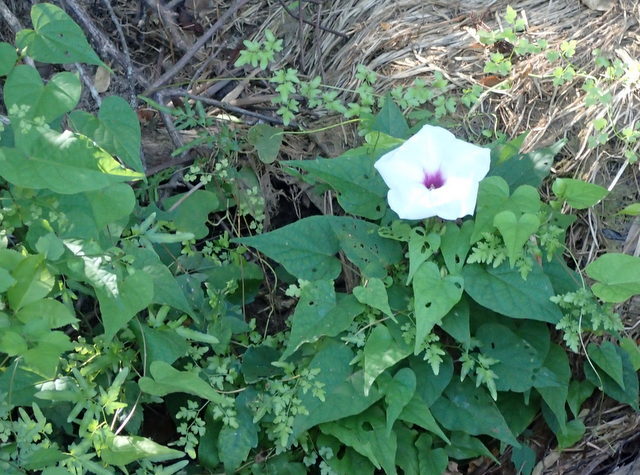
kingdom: Plantae
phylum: Tracheophyta
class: Magnoliopsida
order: Solanales
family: Convolvulaceae
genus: Ipomoea
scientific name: Ipomoea pandurata
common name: Man-of-the-earth
